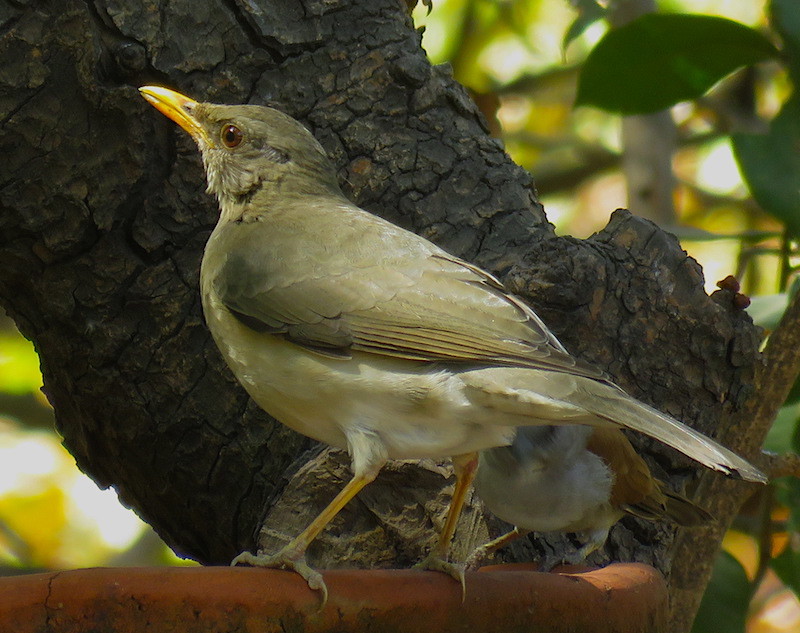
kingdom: Animalia
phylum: Chordata
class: Aves
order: Passeriformes
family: Turdidae
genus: Turdus
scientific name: Turdus pelios
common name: African thrush
